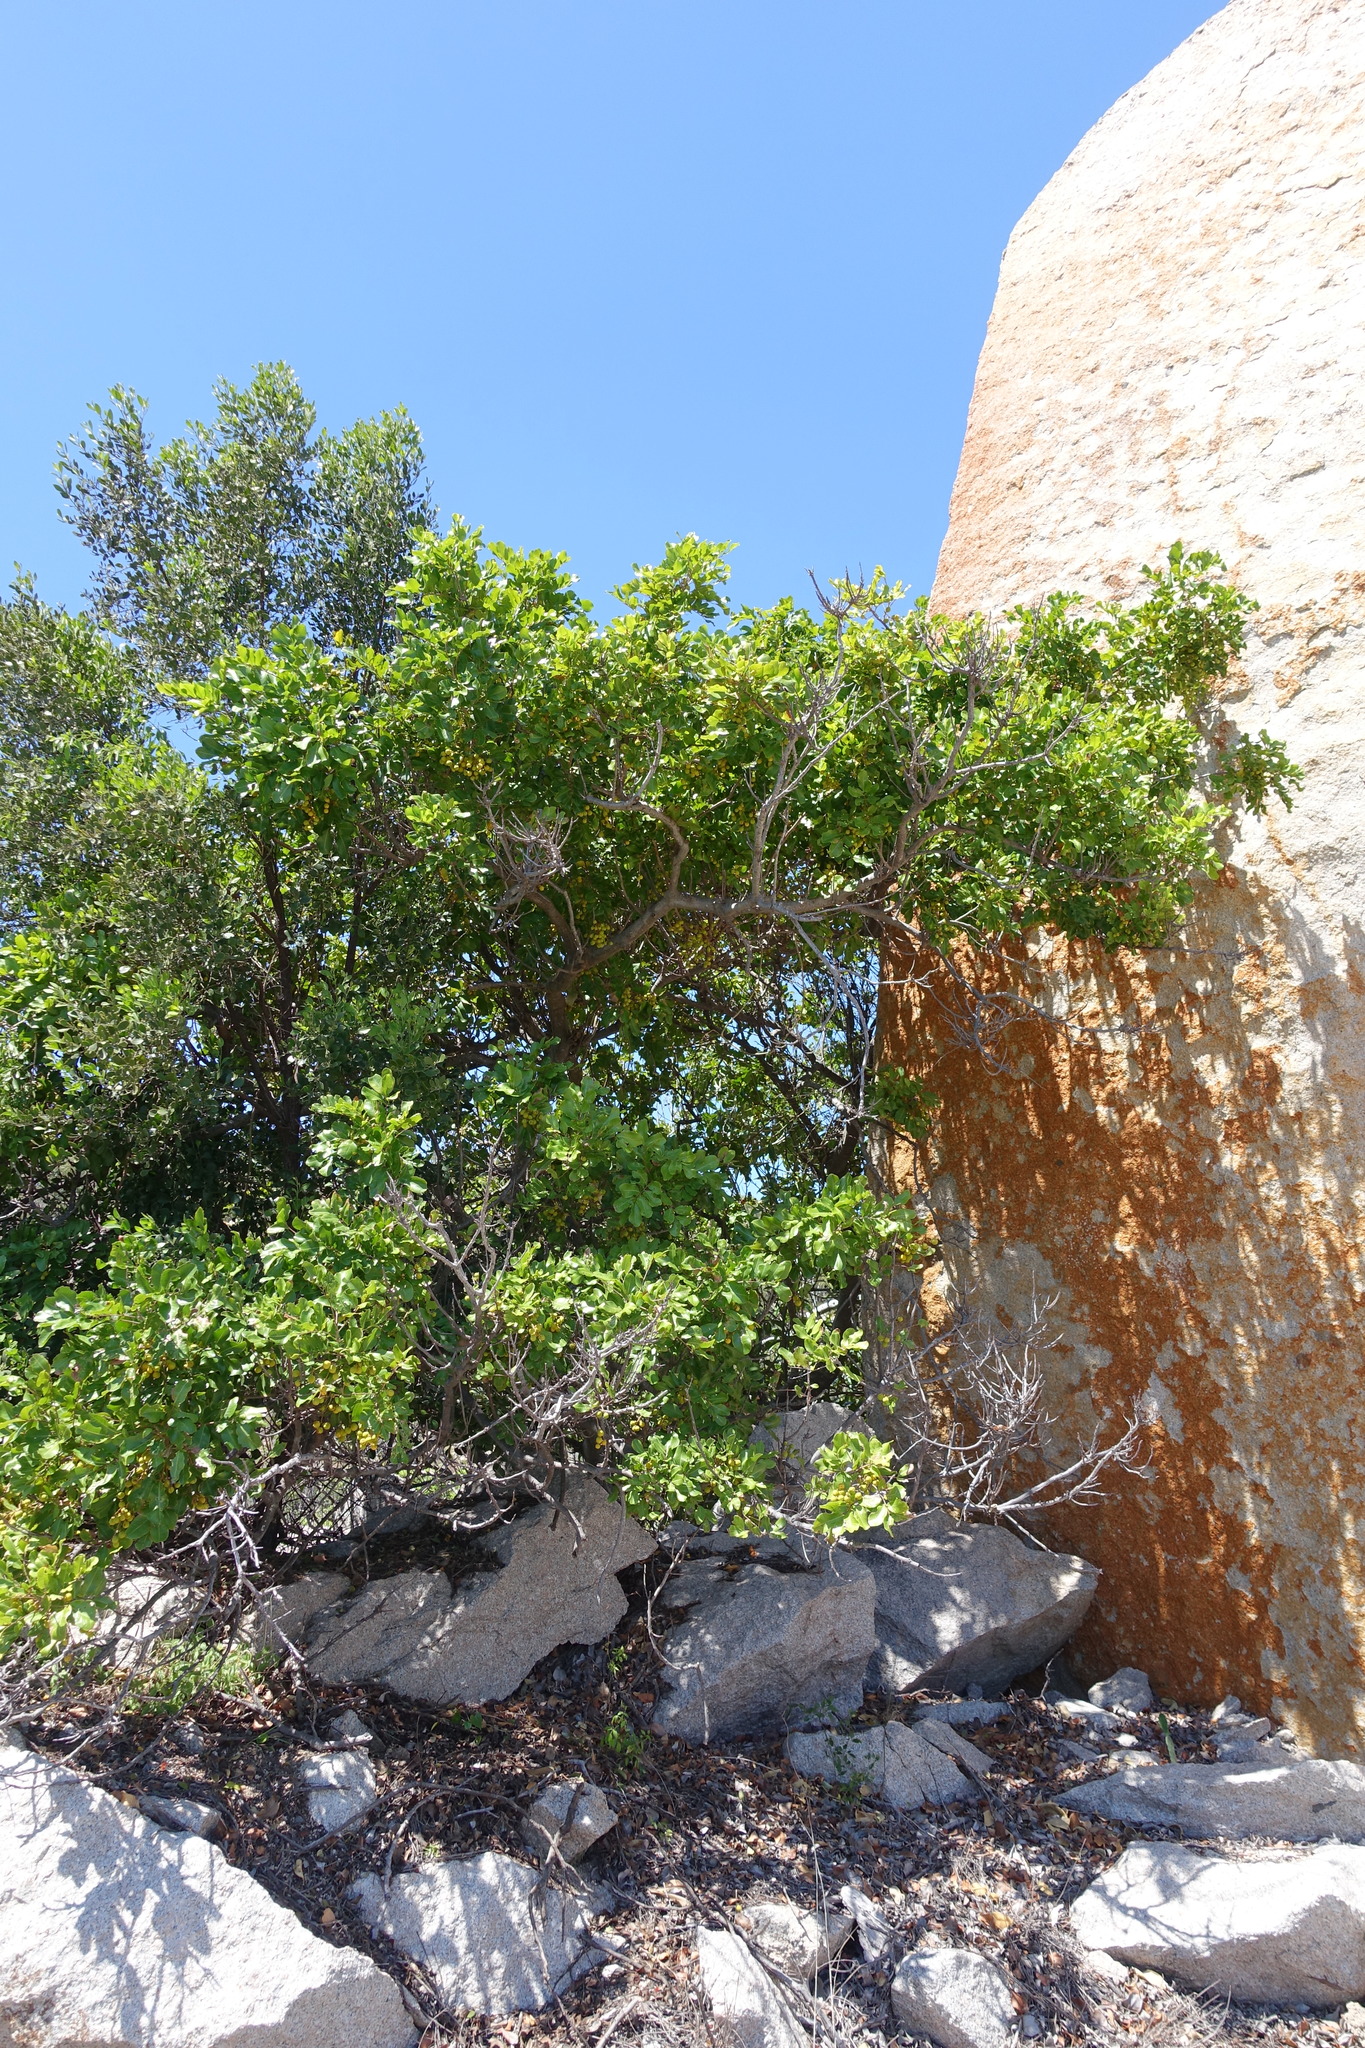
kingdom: Plantae
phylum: Tracheophyta
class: Magnoliopsida
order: Sapindales
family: Sapindaceae
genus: Cupaniopsis
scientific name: Cupaniopsis anacardioides
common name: Carrotwood
